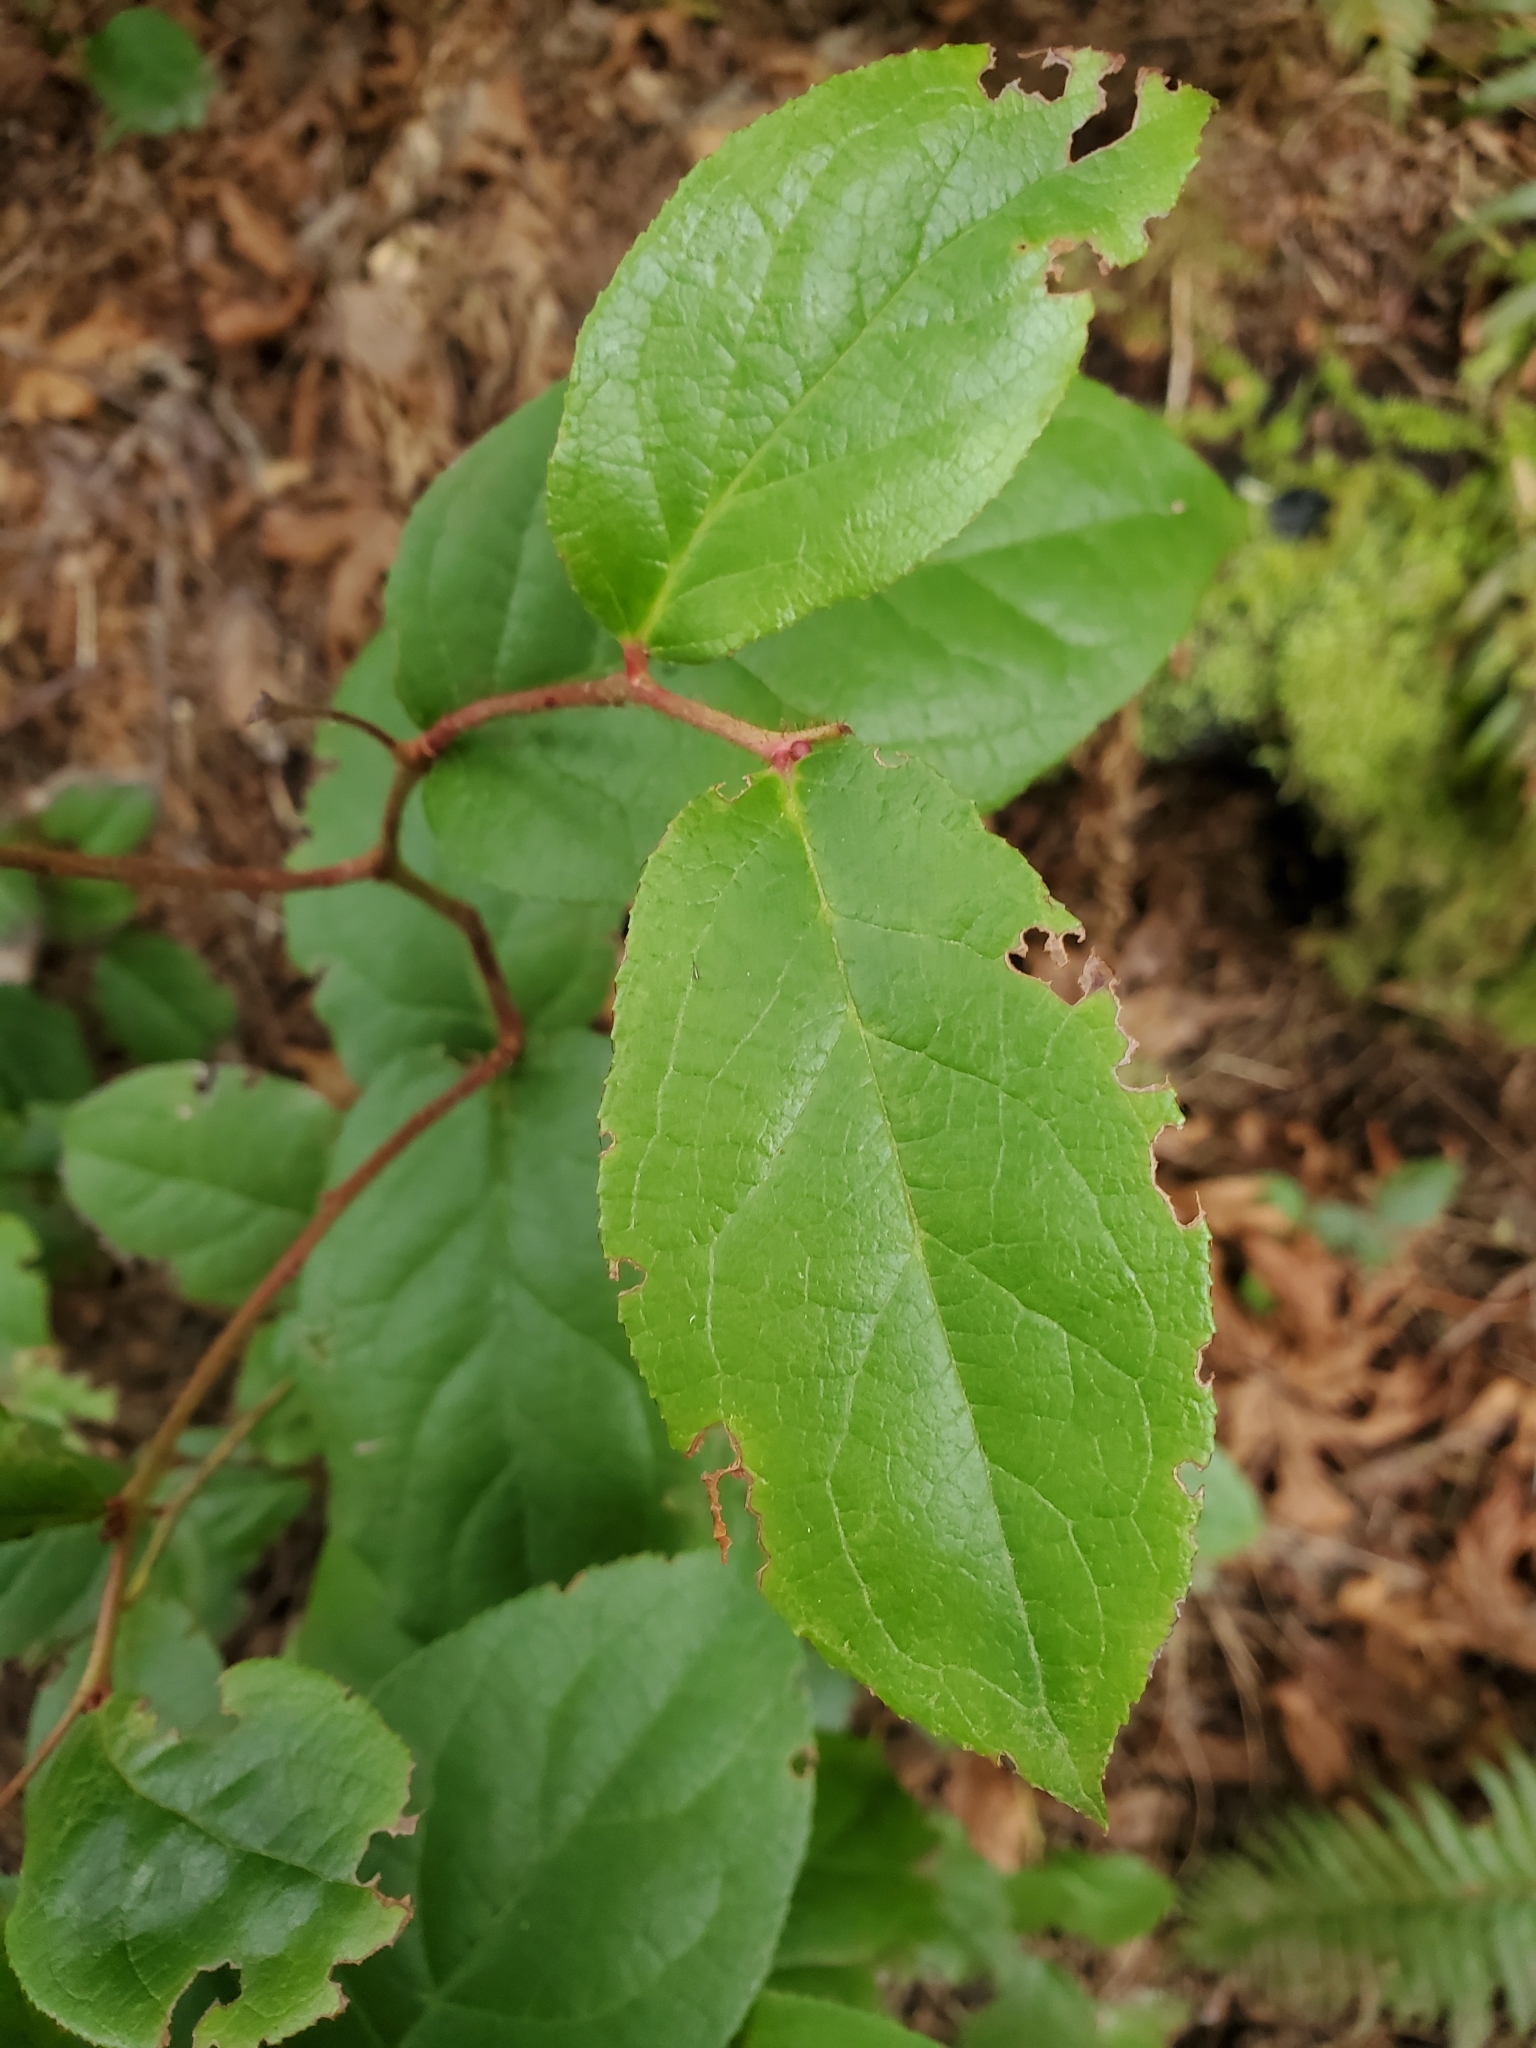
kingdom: Plantae
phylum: Tracheophyta
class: Magnoliopsida
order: Ericales
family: Ericaceae
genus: Gaultheria
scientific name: Gaultheria shallon
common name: Shallon
